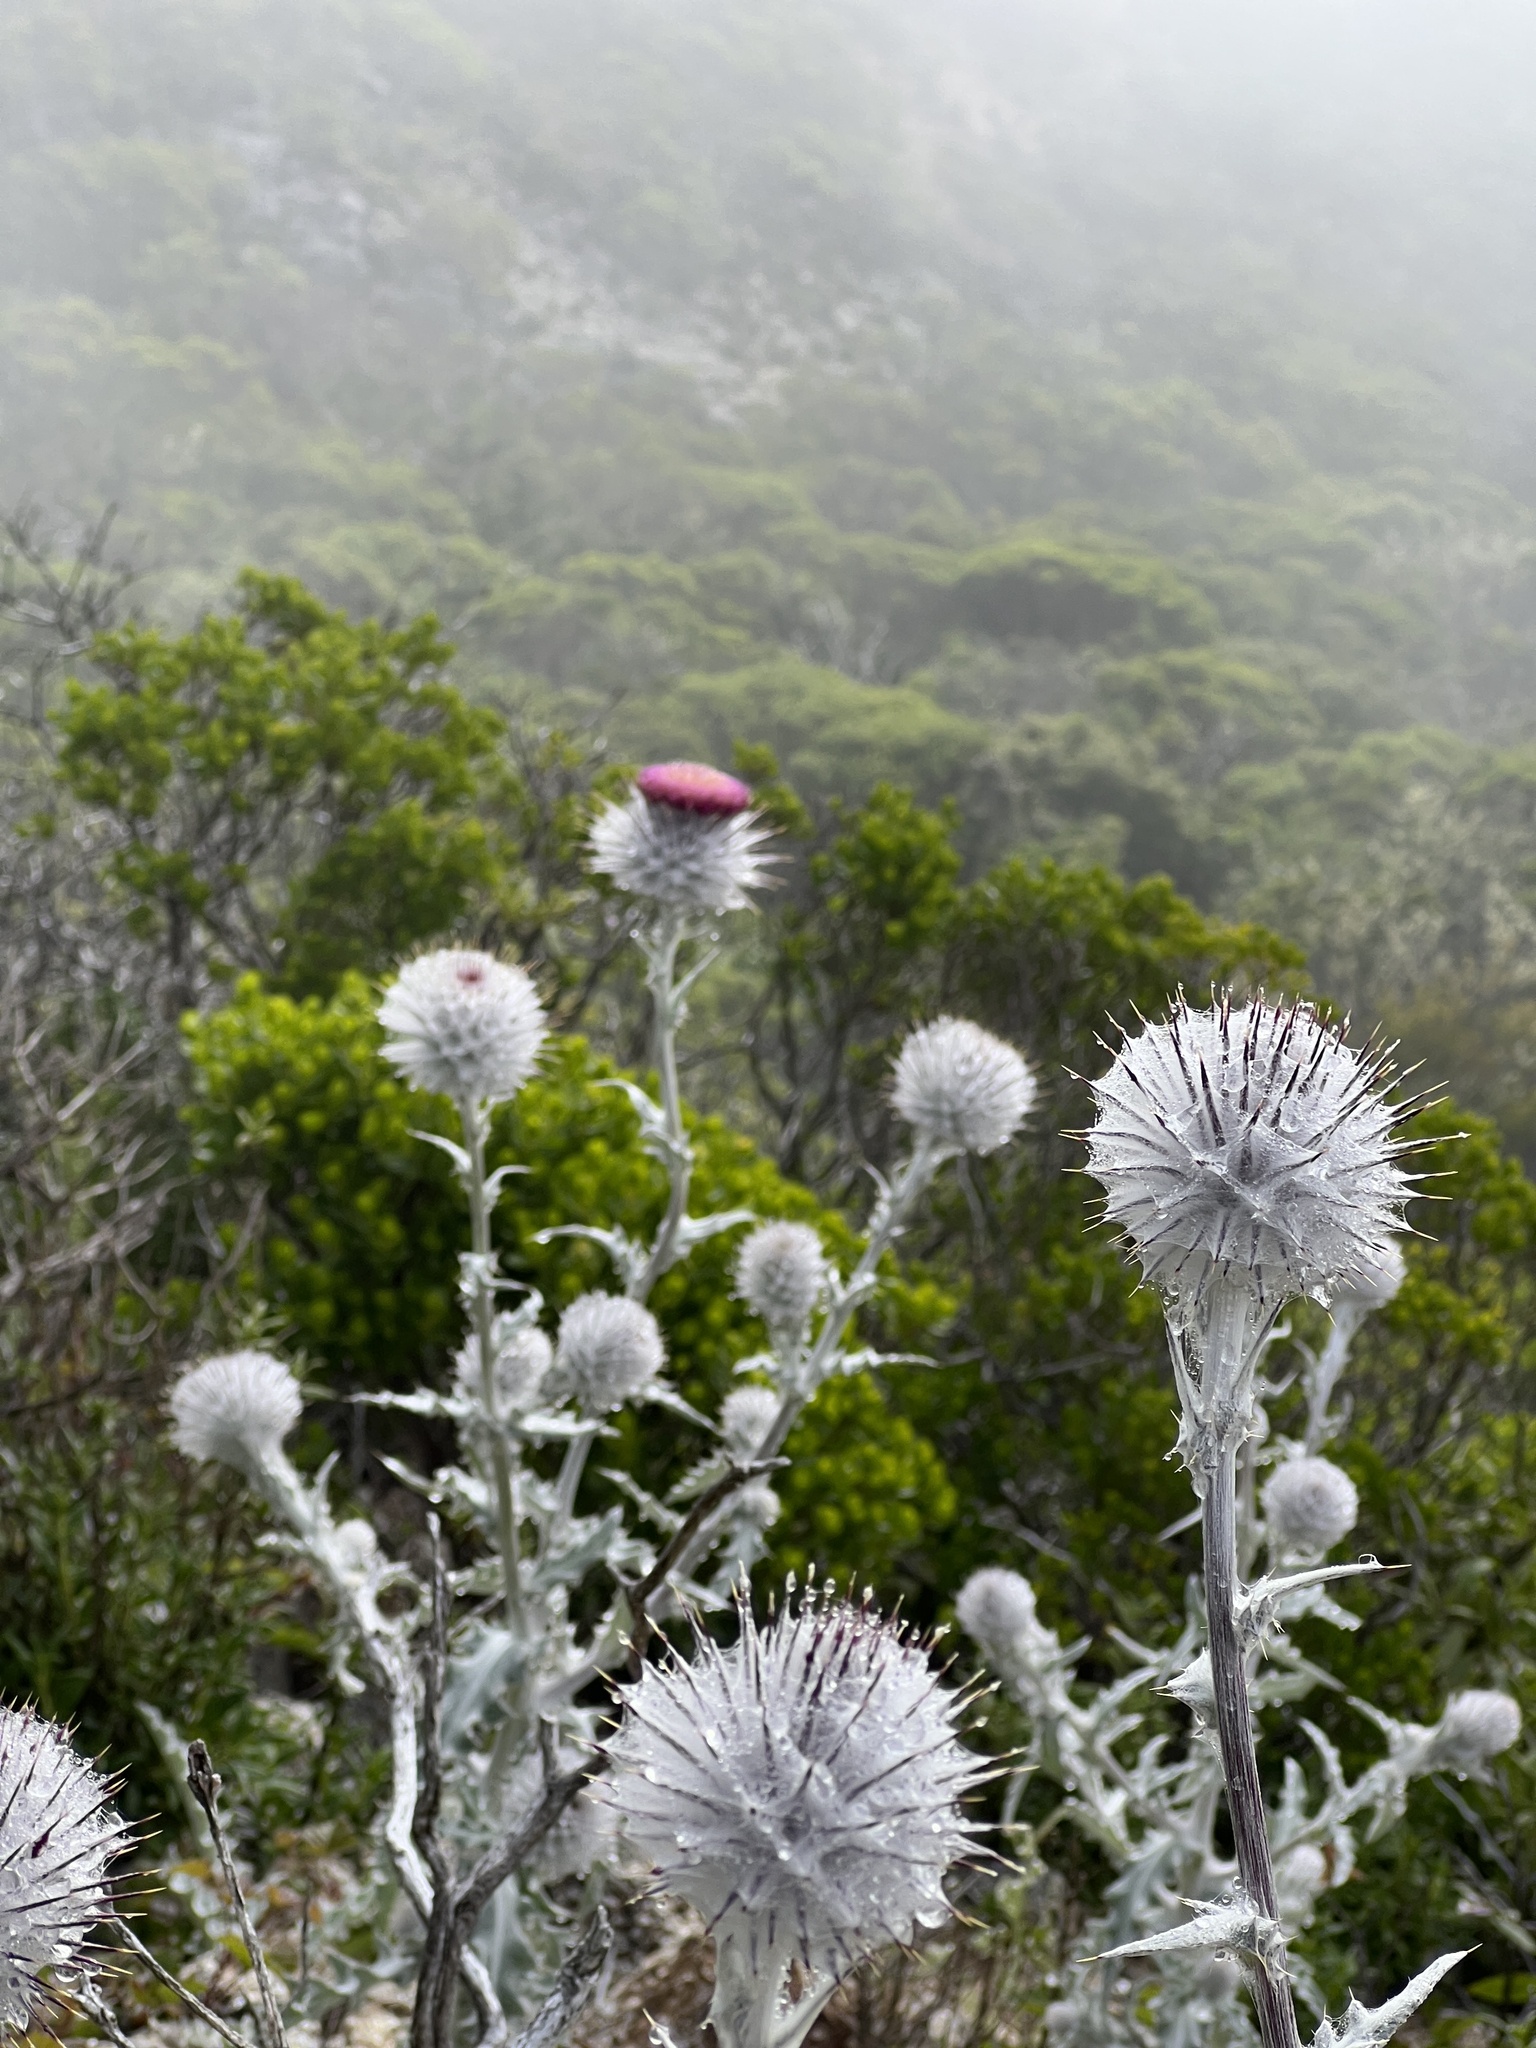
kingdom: Plantae
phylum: Tracheophyta
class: Magnoliopsida
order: Asterales
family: Asteraceae
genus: Cirsium
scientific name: Cirsium occidentale
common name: Western thistle
